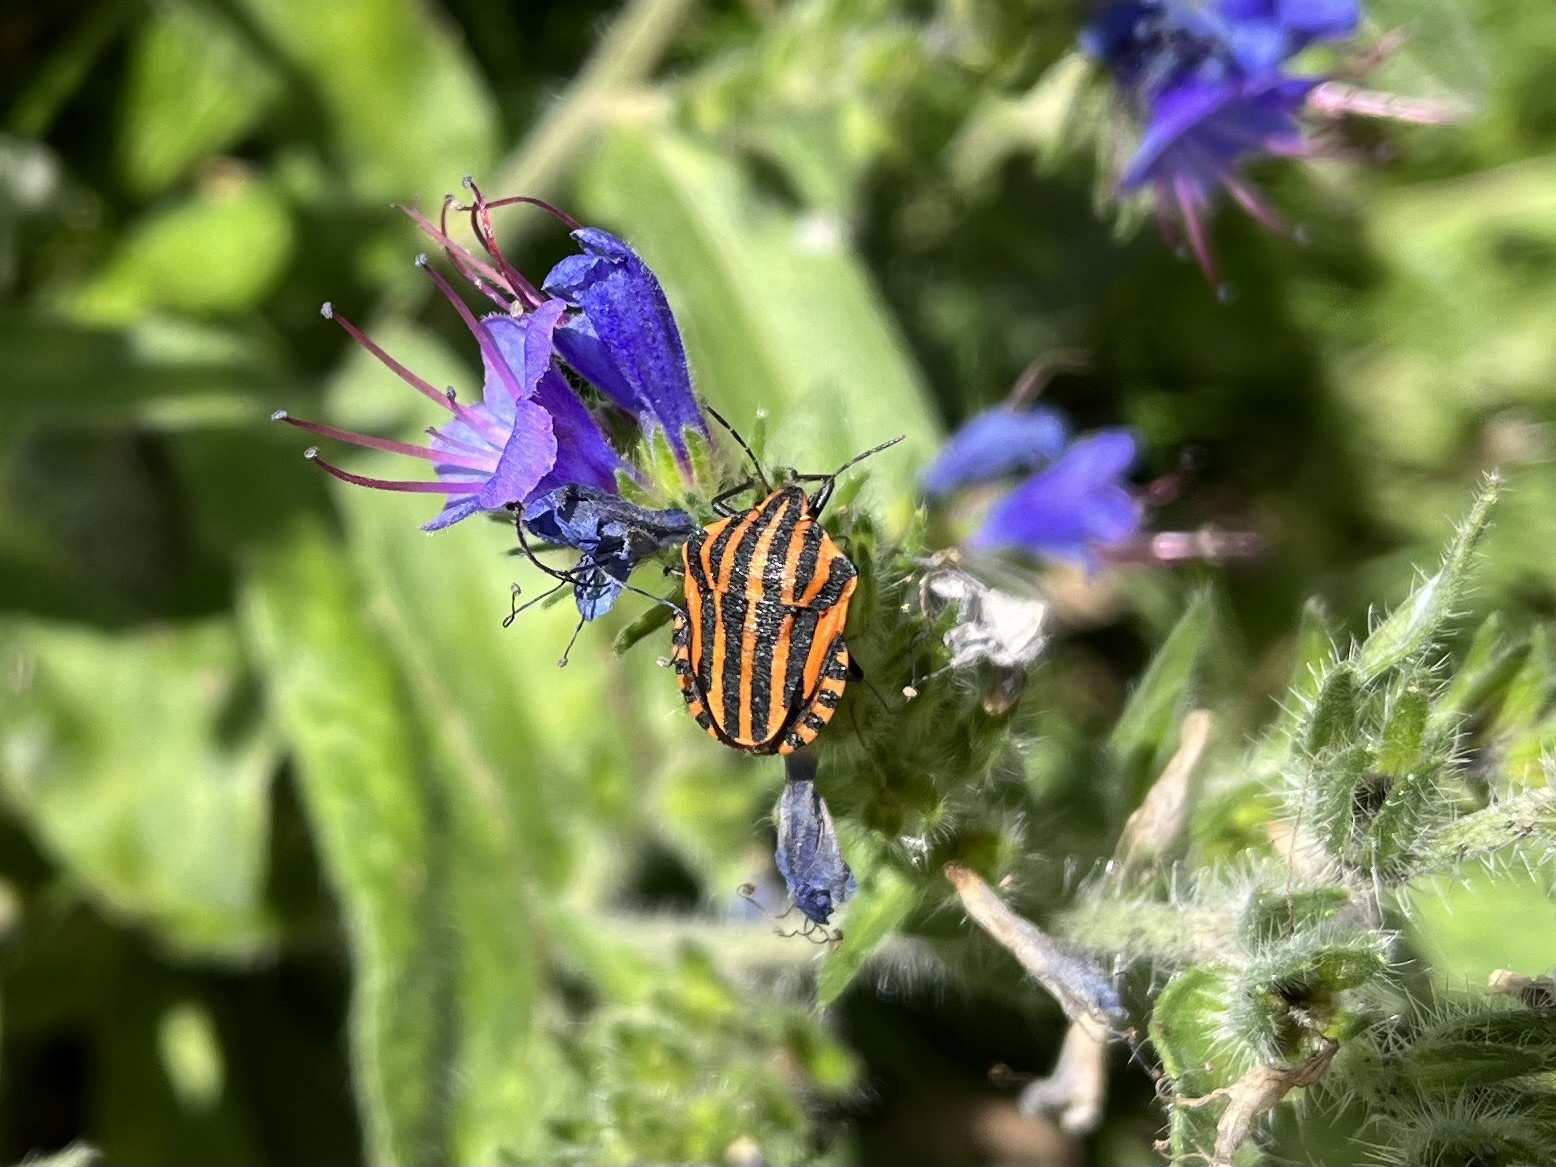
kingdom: Animalia
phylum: Arthropoda
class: Insecta
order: Hemiptera
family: Pentatomidae
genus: Graphosoma
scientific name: Graphosoma italicum
